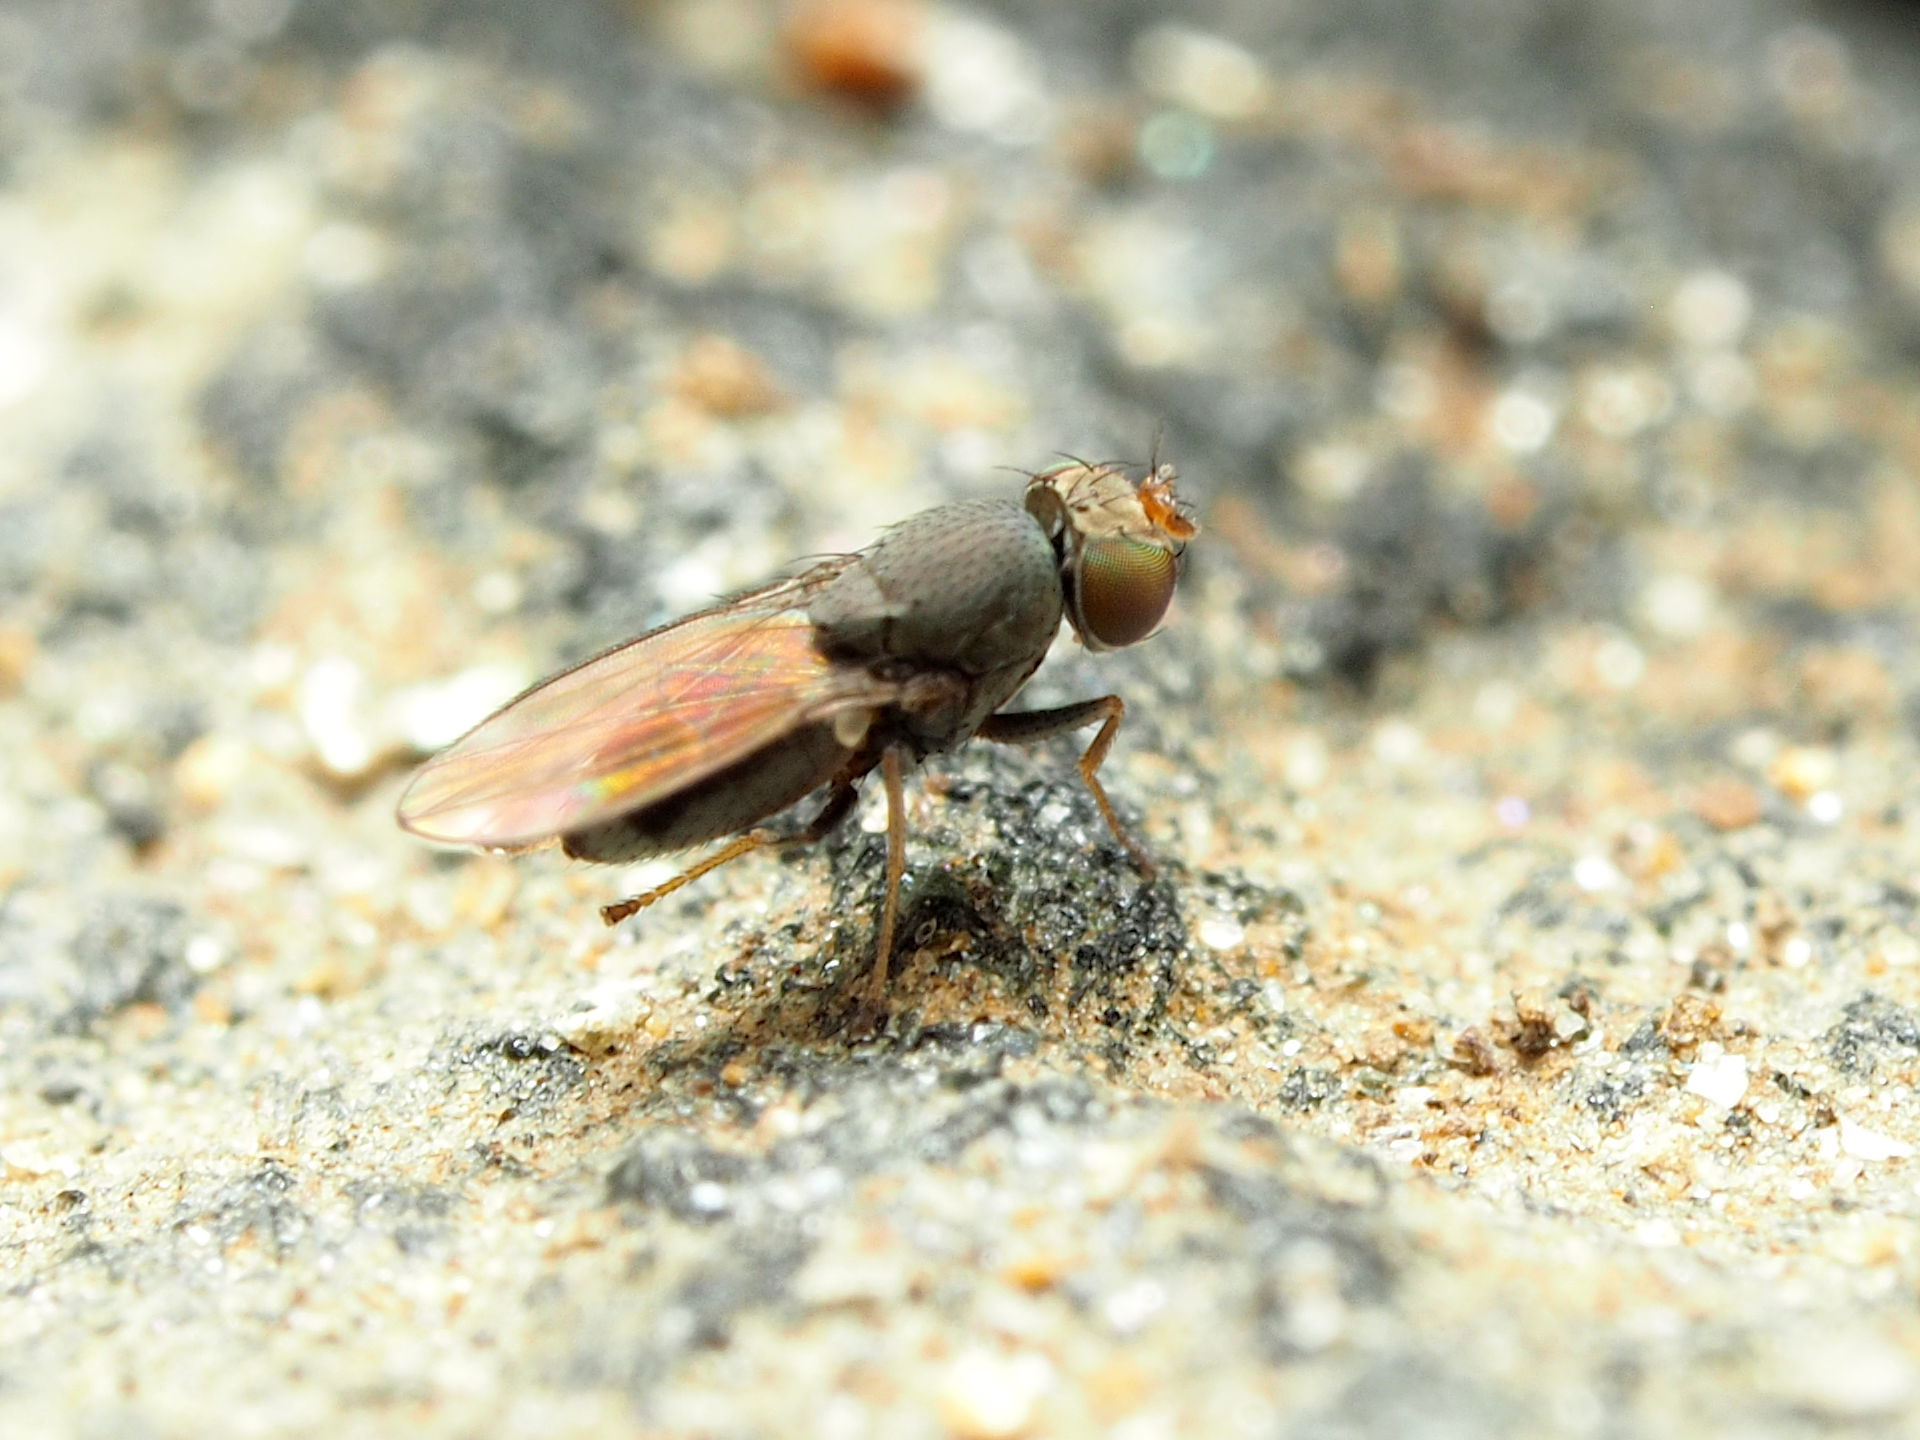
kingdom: Animalia
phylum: Arthropoda
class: Insecta
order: Diptera
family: Ephydridae
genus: Aquachasma
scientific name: Aquachasma leucoproctum
